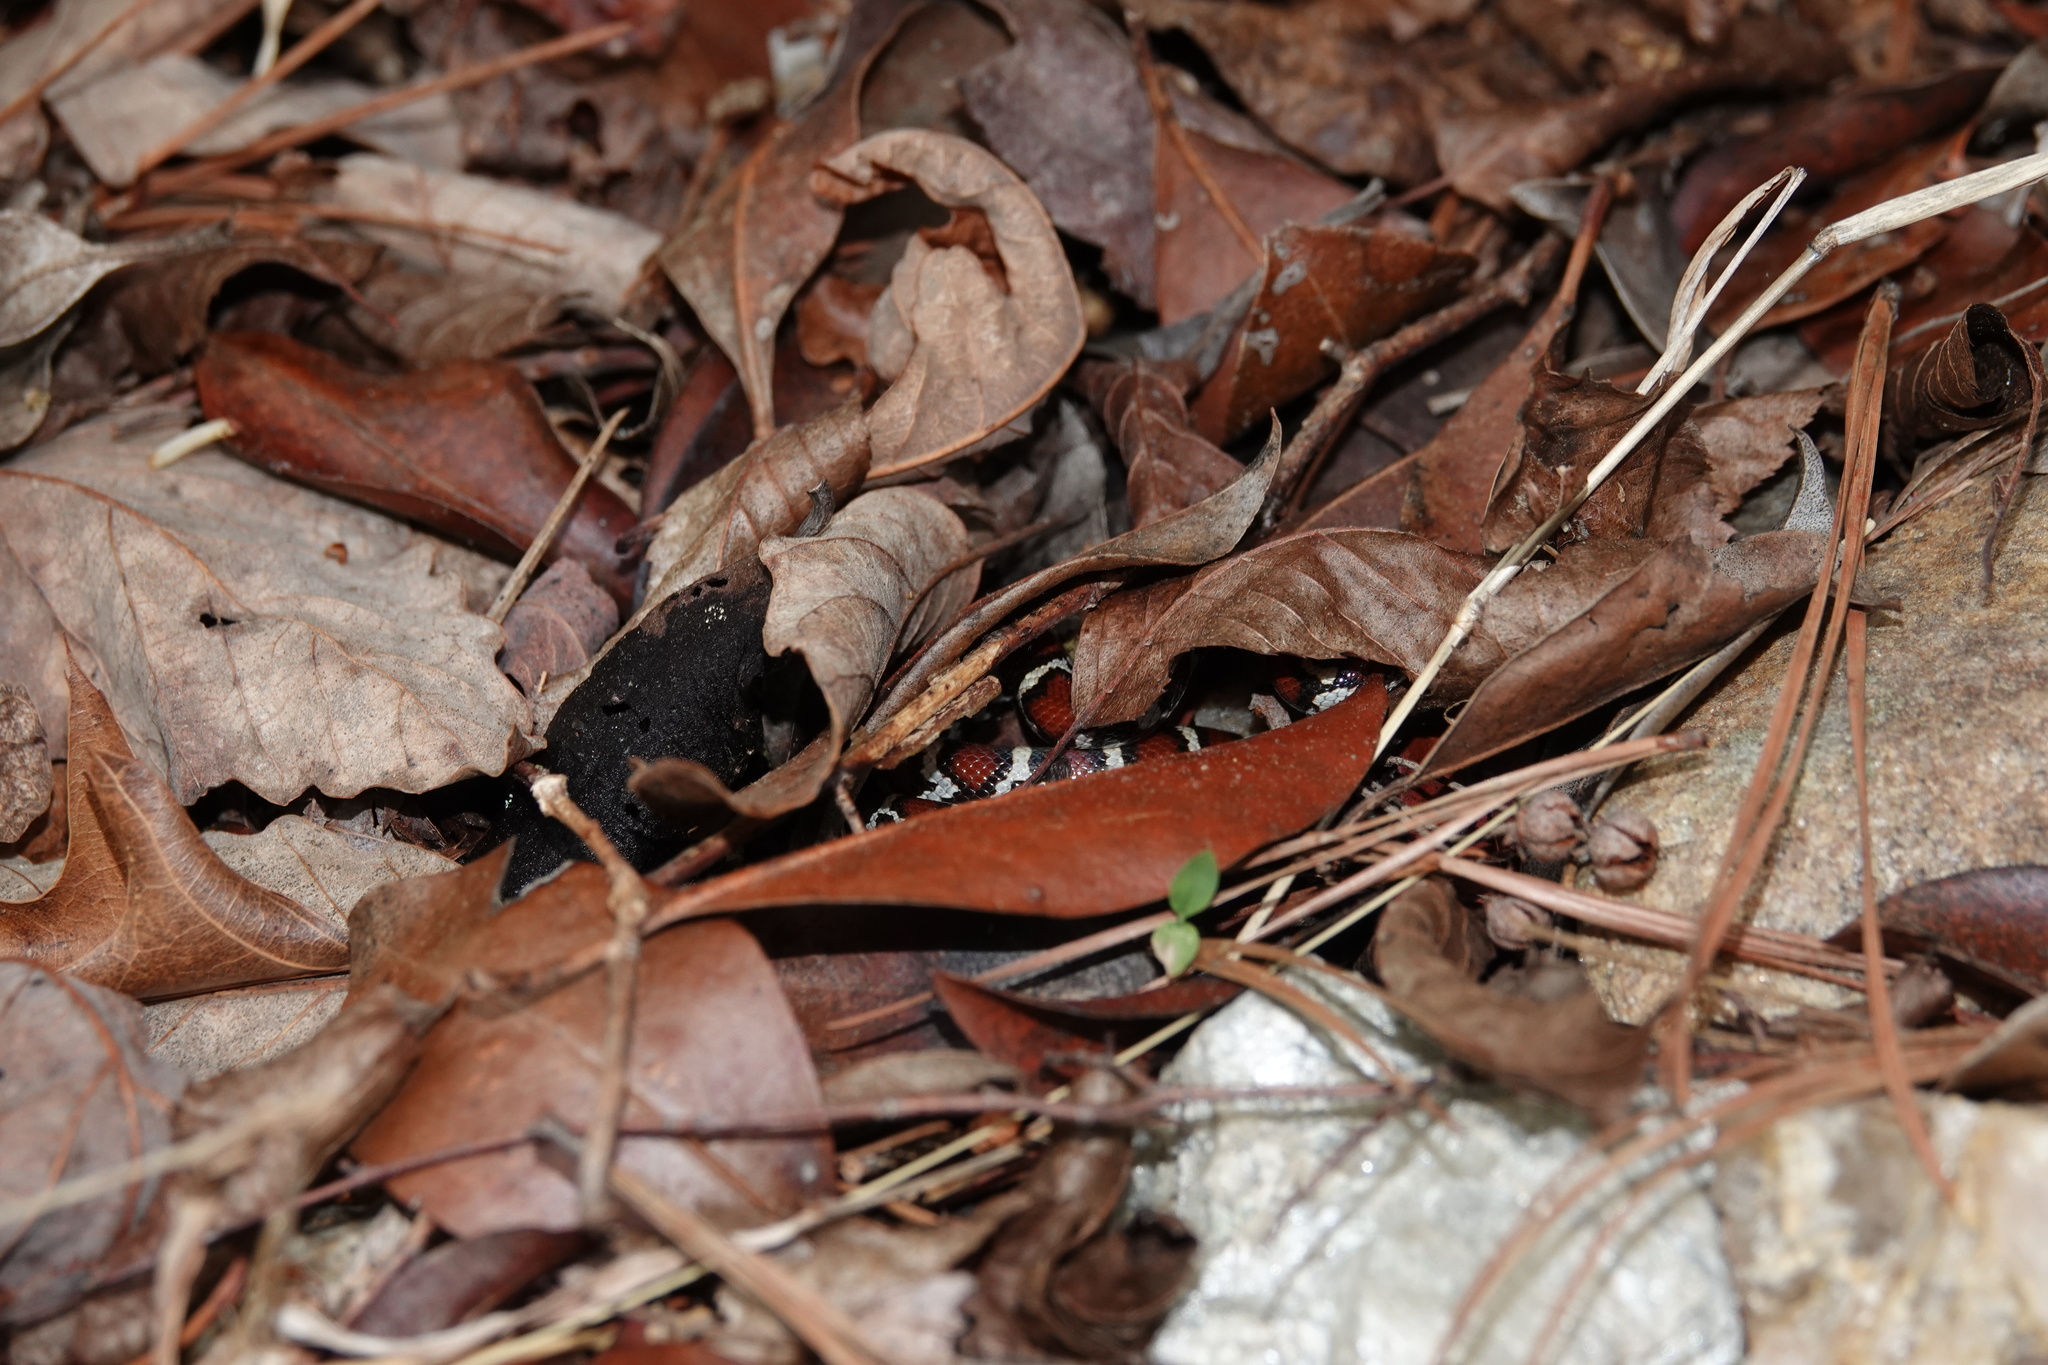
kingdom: Animalia
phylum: Chordata
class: Squamata
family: Colubridae
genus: Lampropeltis
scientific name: Lampropeltis triangulum
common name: Eastern milksnake
